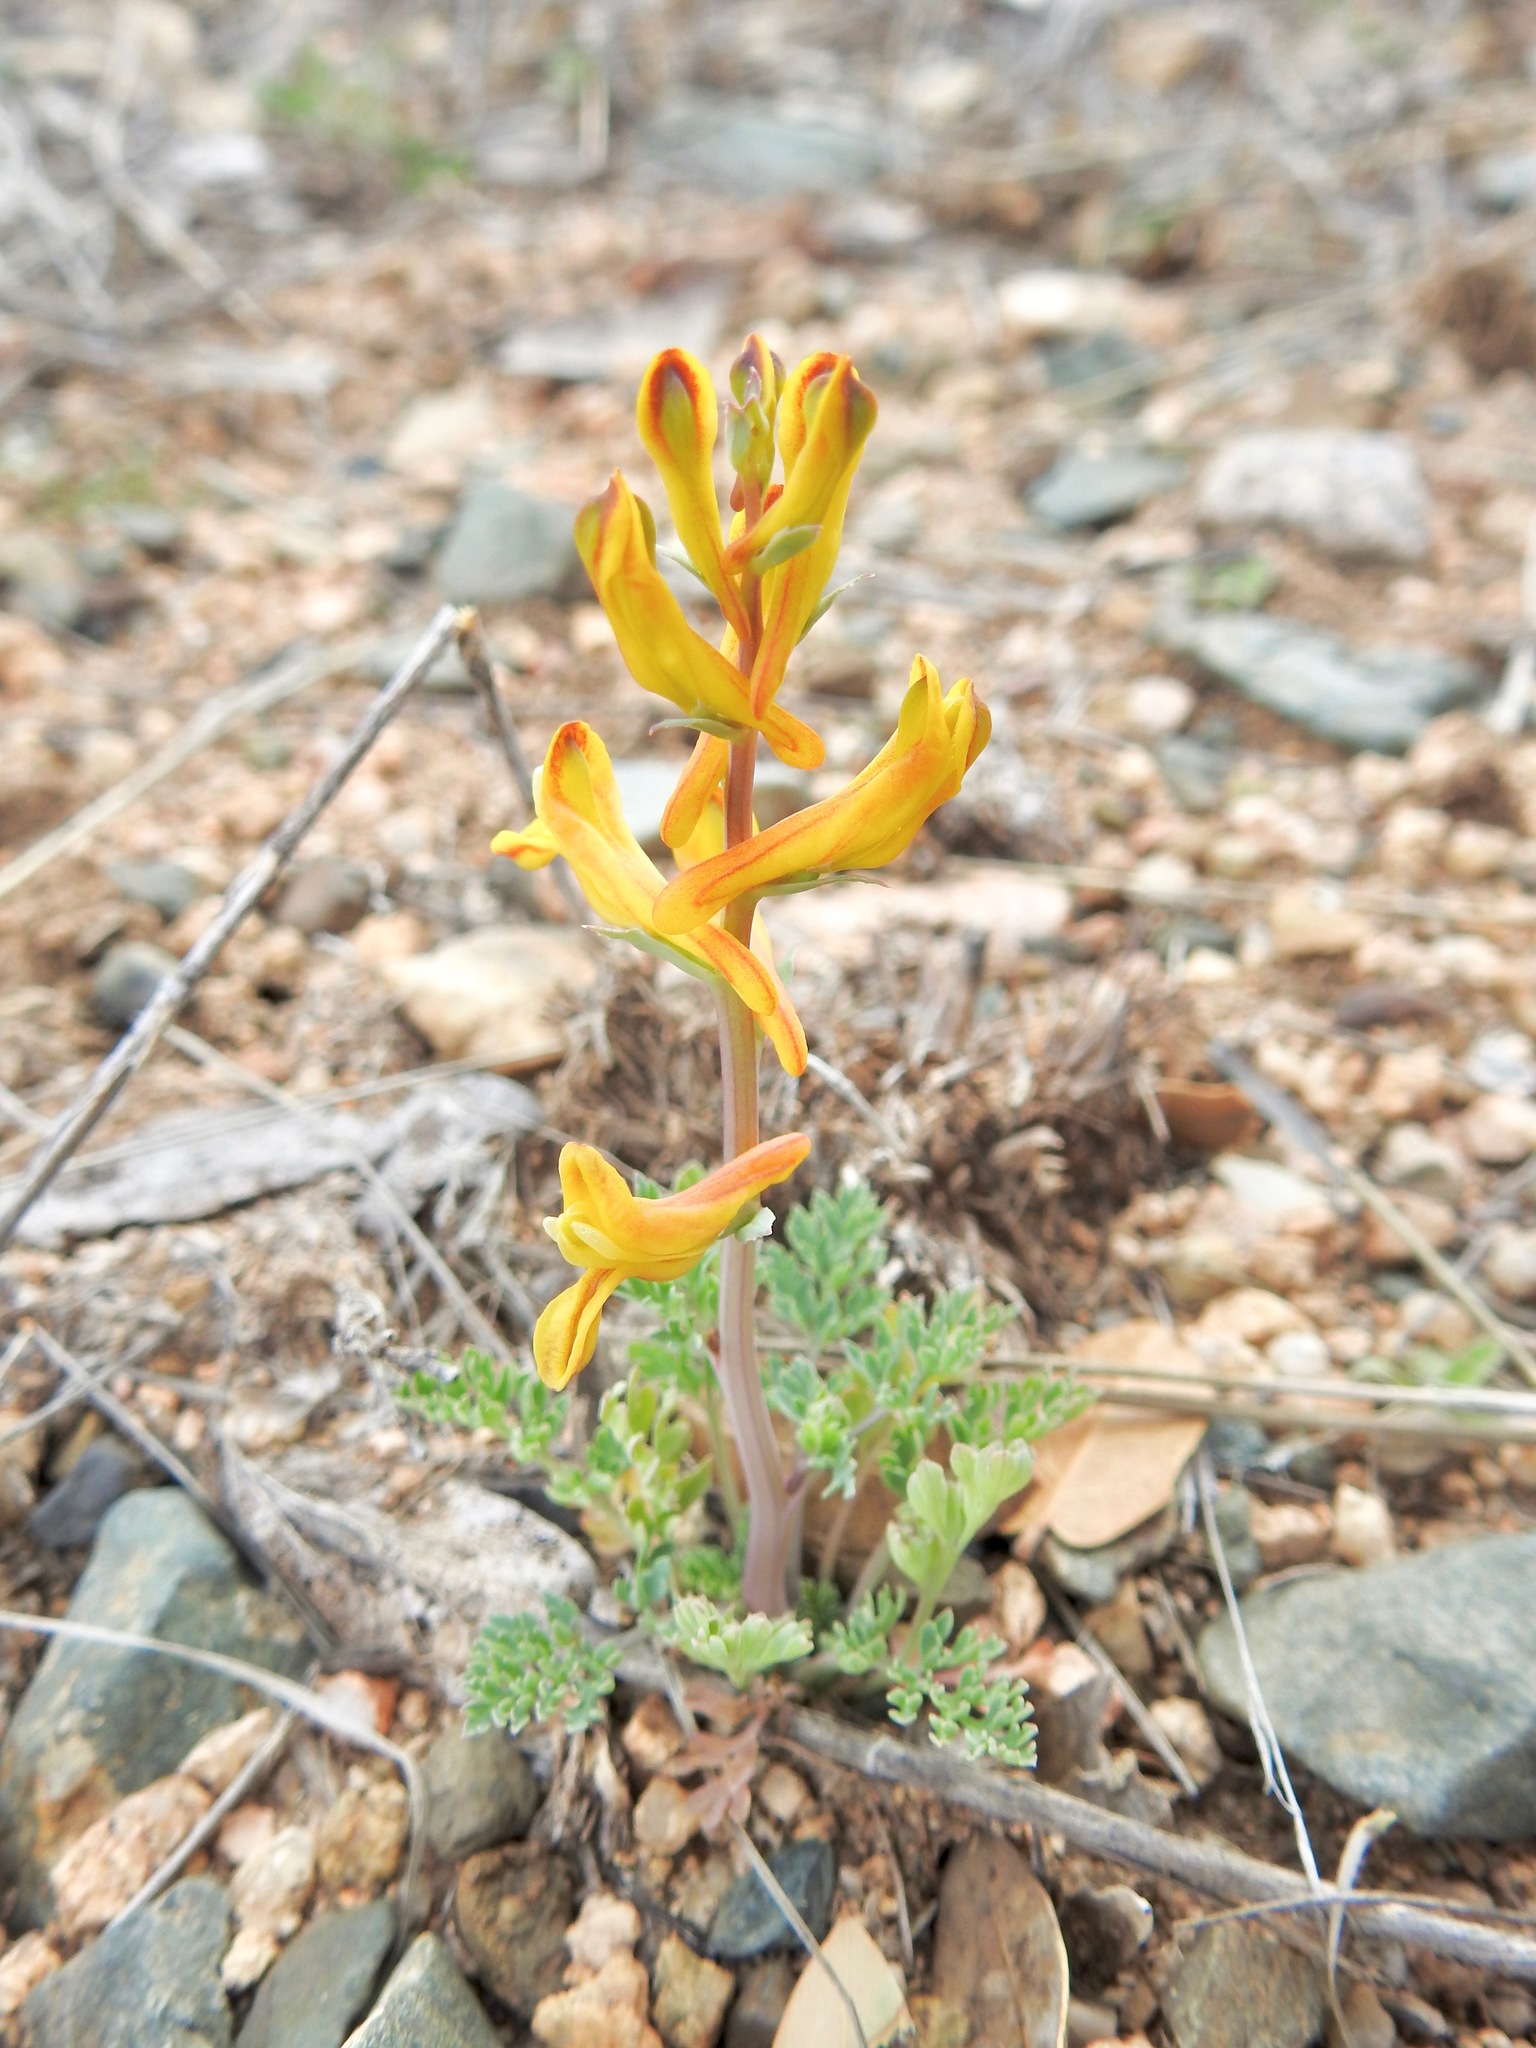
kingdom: Plantae
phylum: Tracheophyta
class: Magnoliopsida
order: Ranunculales
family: Papaveraceae
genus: Corydalis
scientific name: Corydalis aurea
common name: Golden corydalis
